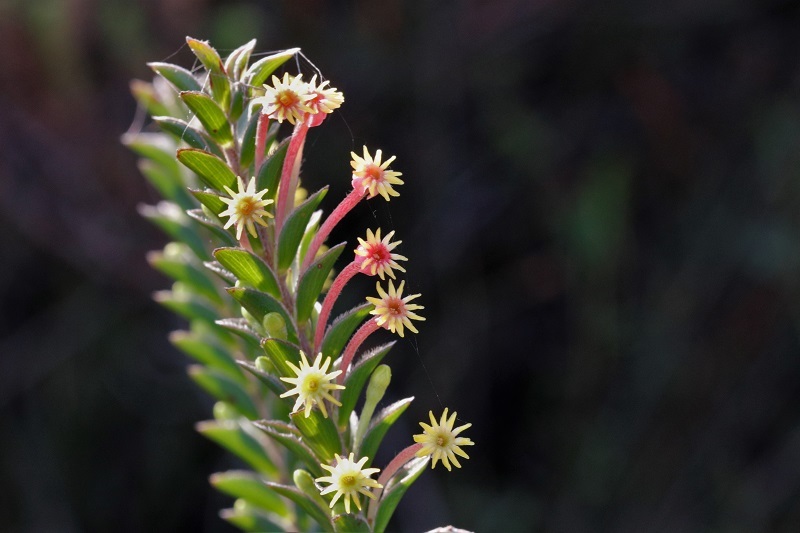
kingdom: Plantae
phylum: Tracheophyta
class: Magnoliopsida
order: Malvales
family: Thymelaeaceae
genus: Struthiola
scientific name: Struthiola argentea
